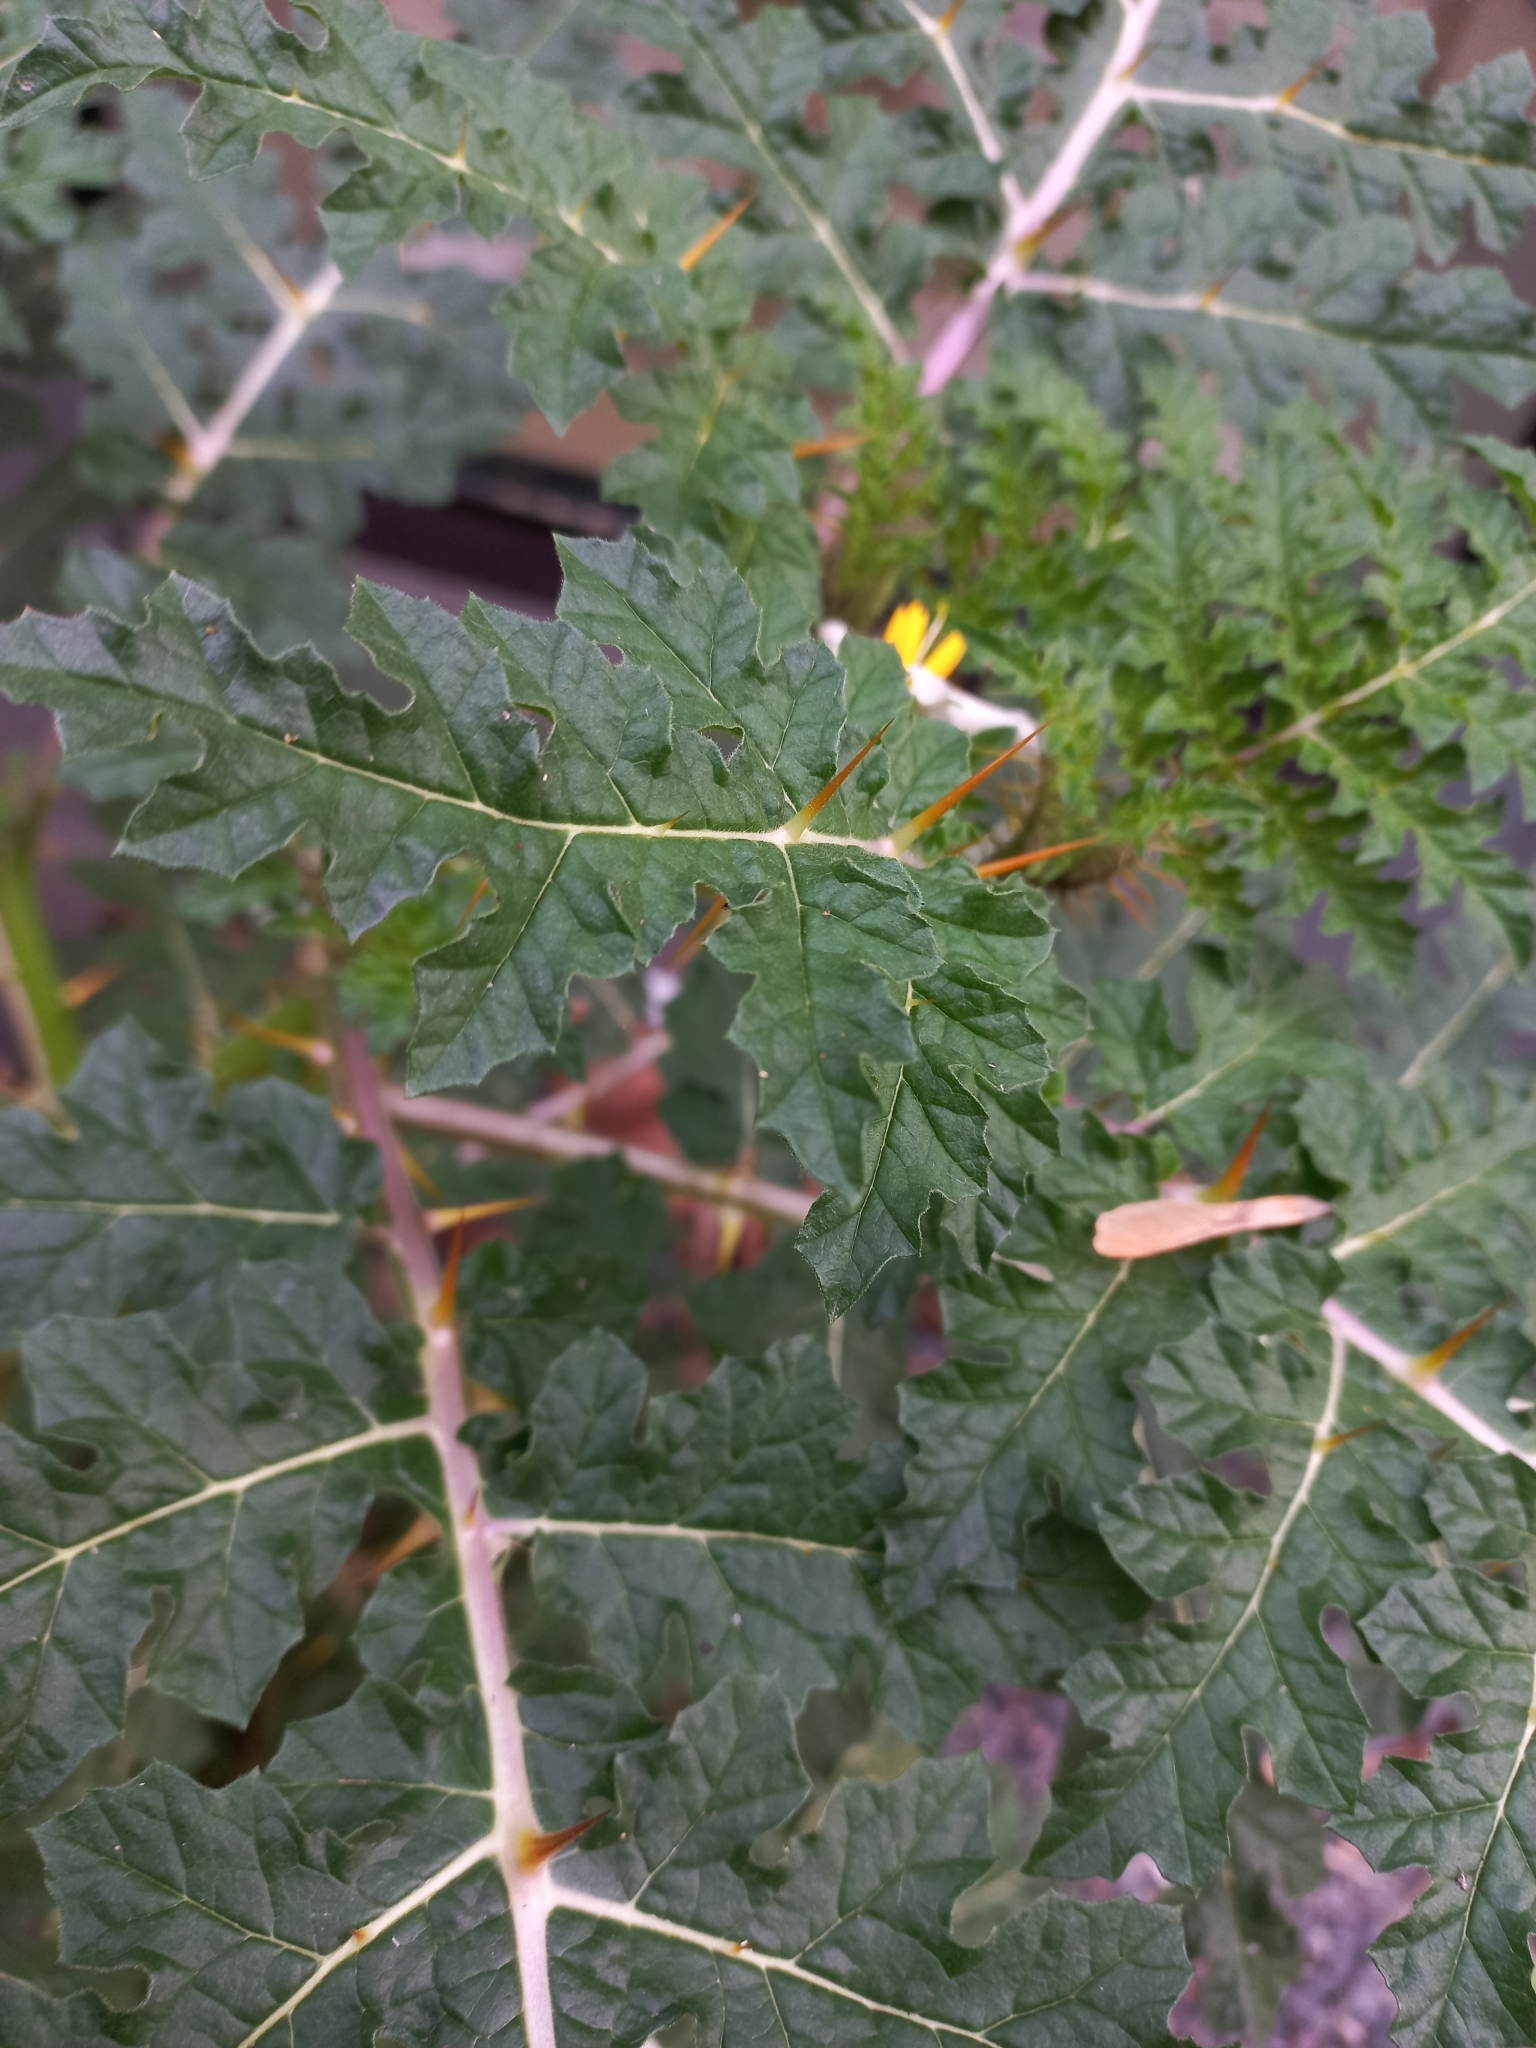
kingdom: Plantae
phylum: Tracheophyta
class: Magnoliopsida
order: Solanales
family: Solanaceae
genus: Solanum
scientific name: Solanum sisymbriifolium
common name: Red buffalo-bur
